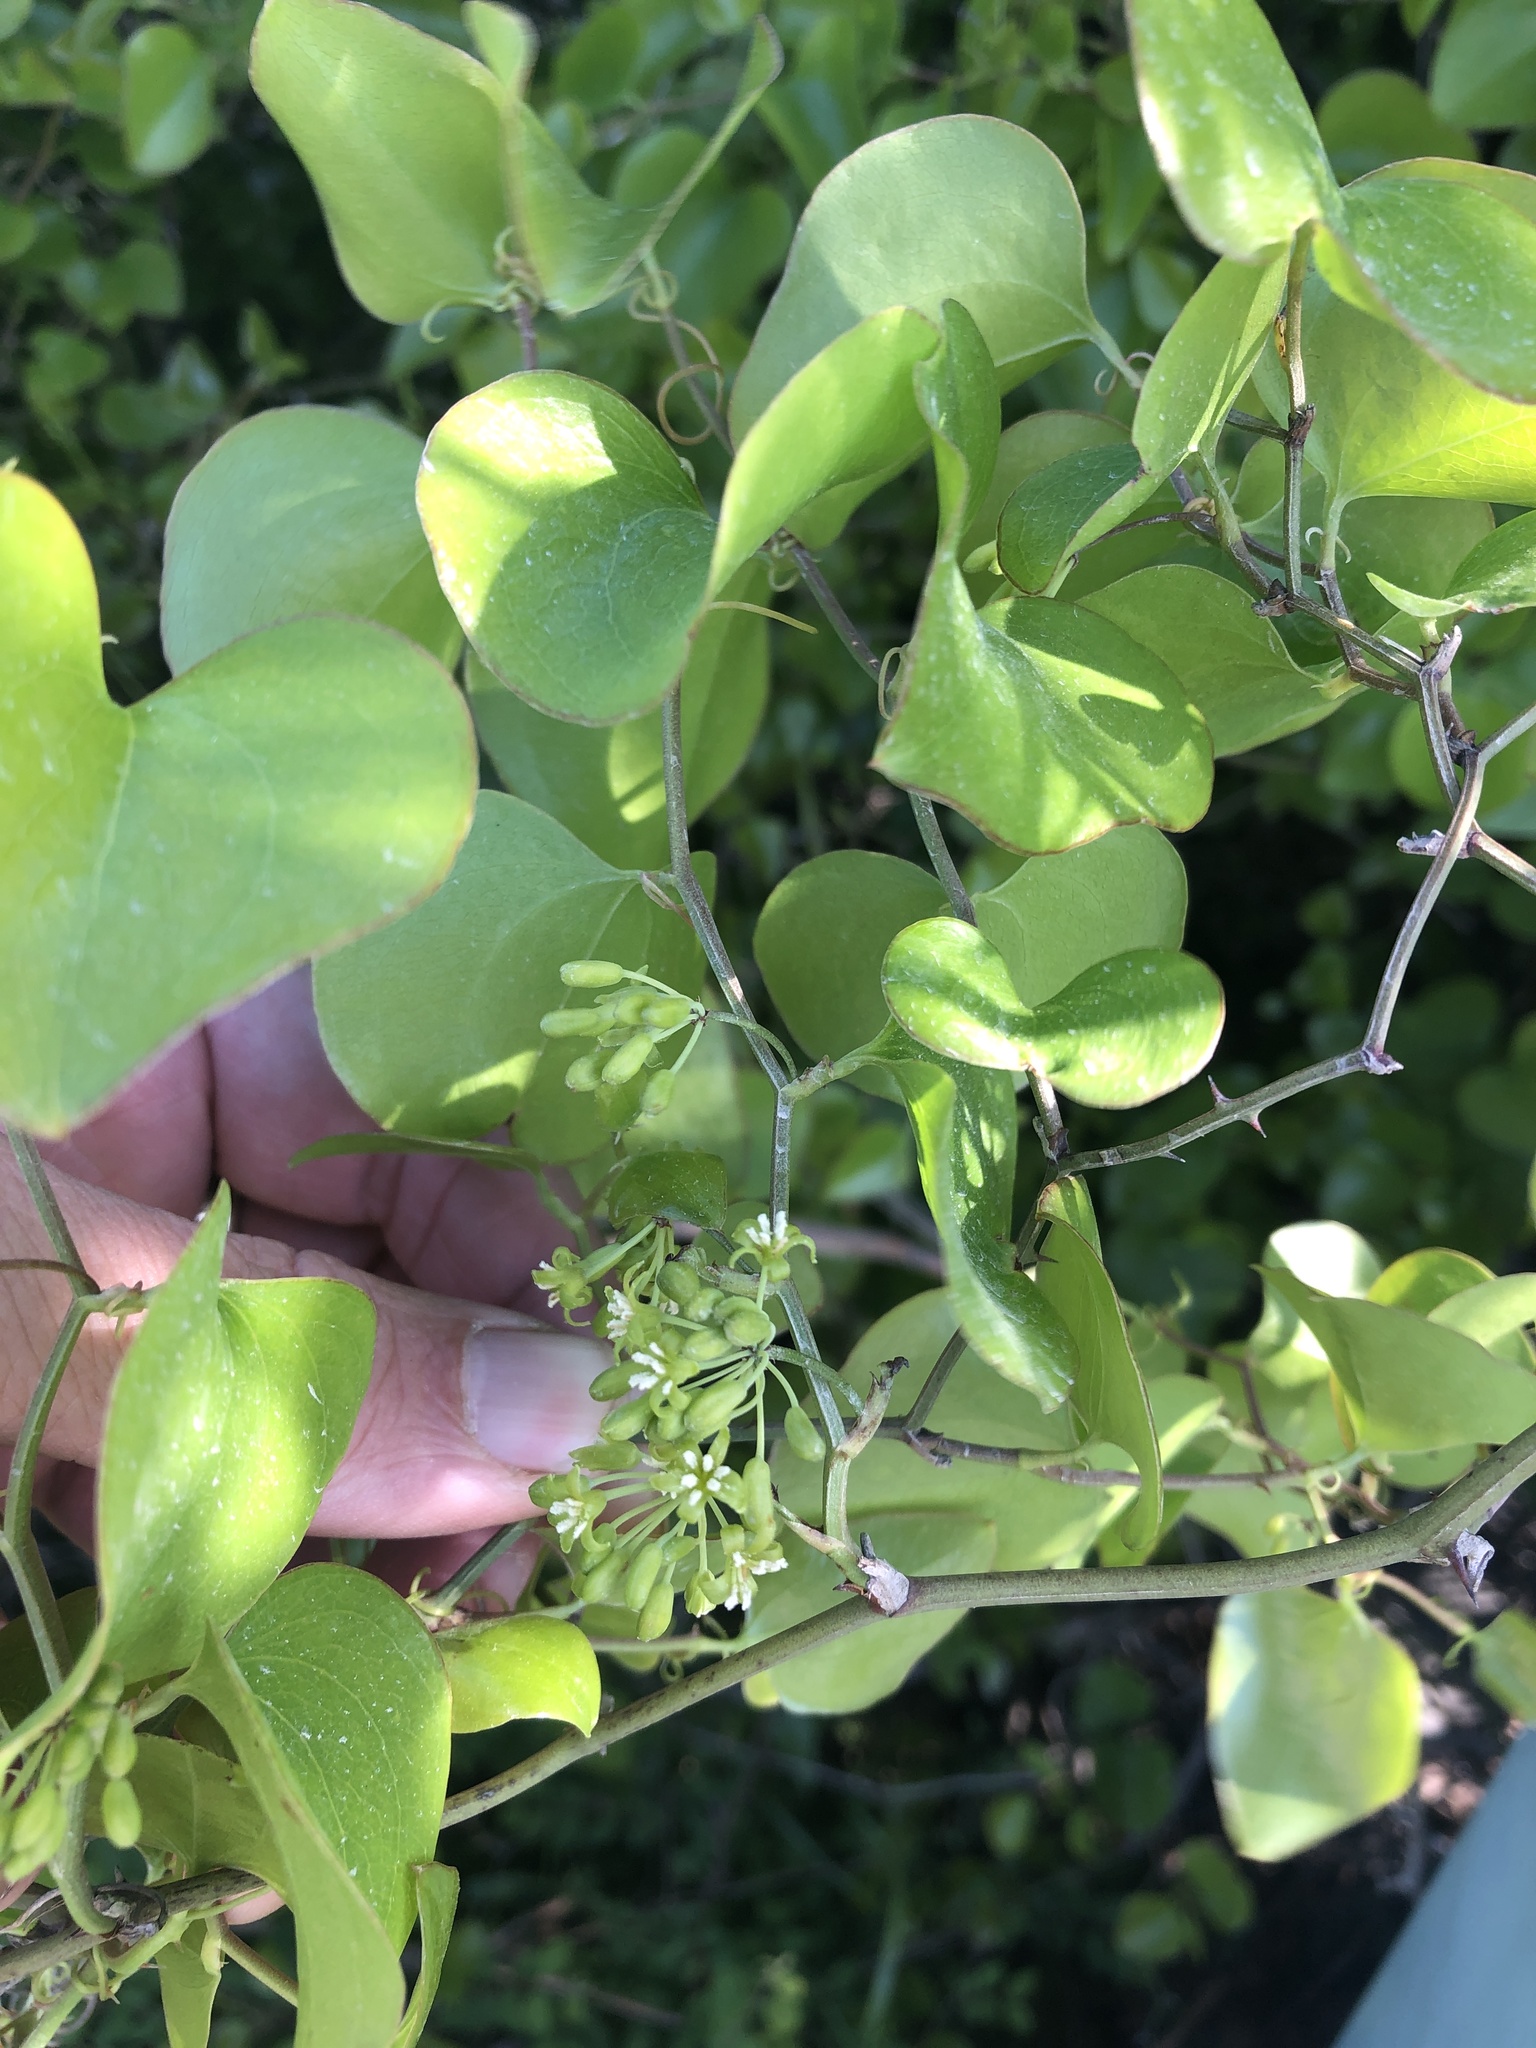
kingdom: Plantae
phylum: Tracheophyta
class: Liliopsida
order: Liliales
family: Smilacaceae
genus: Smilax
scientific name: Smilax bona-nox
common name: Catbrier
